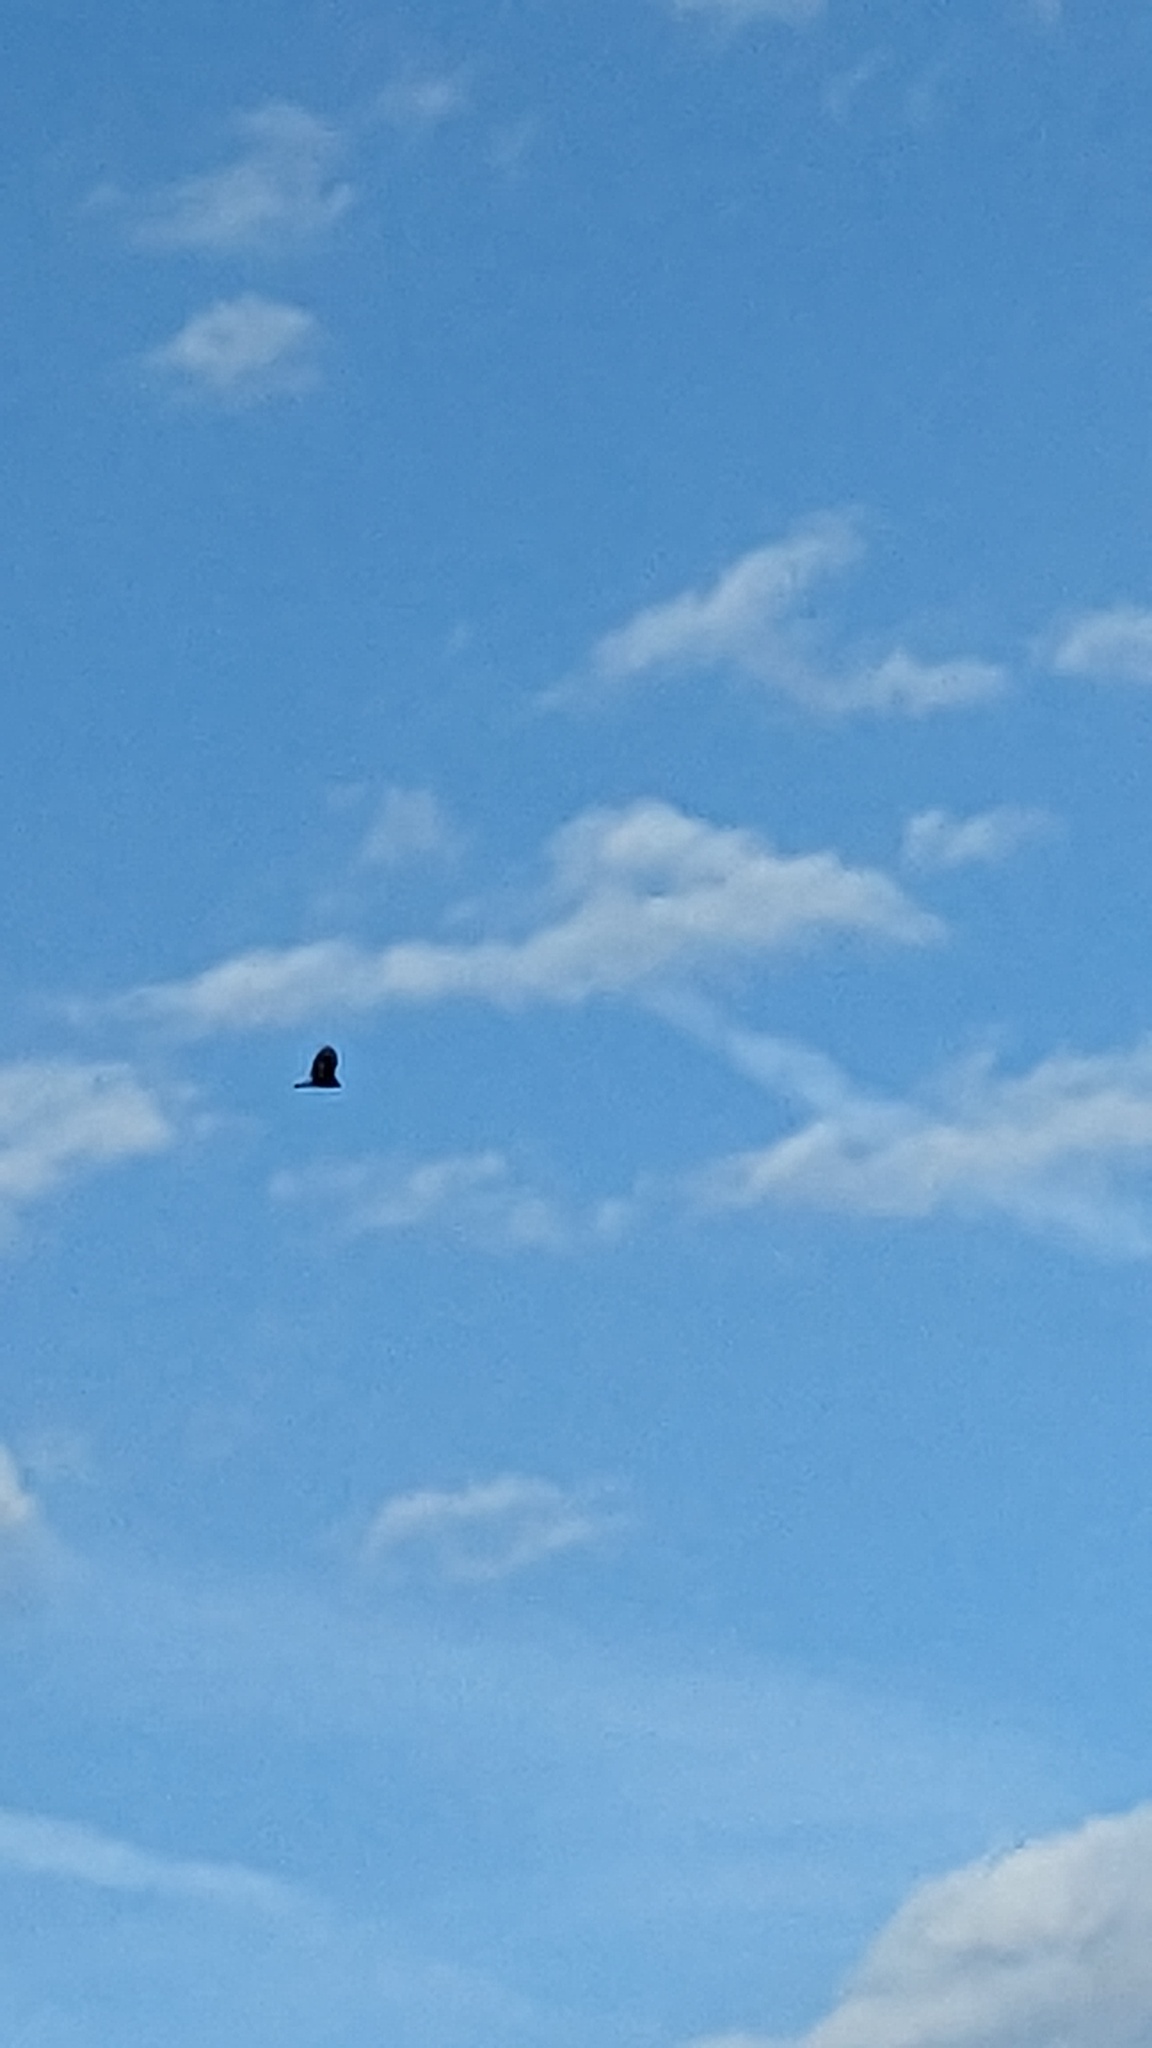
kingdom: Animalia
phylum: Chordata
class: Aves
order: Accipitriformes
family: Cathartidae
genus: Cathartes
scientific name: Cathartes aura
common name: Turkey vulture
